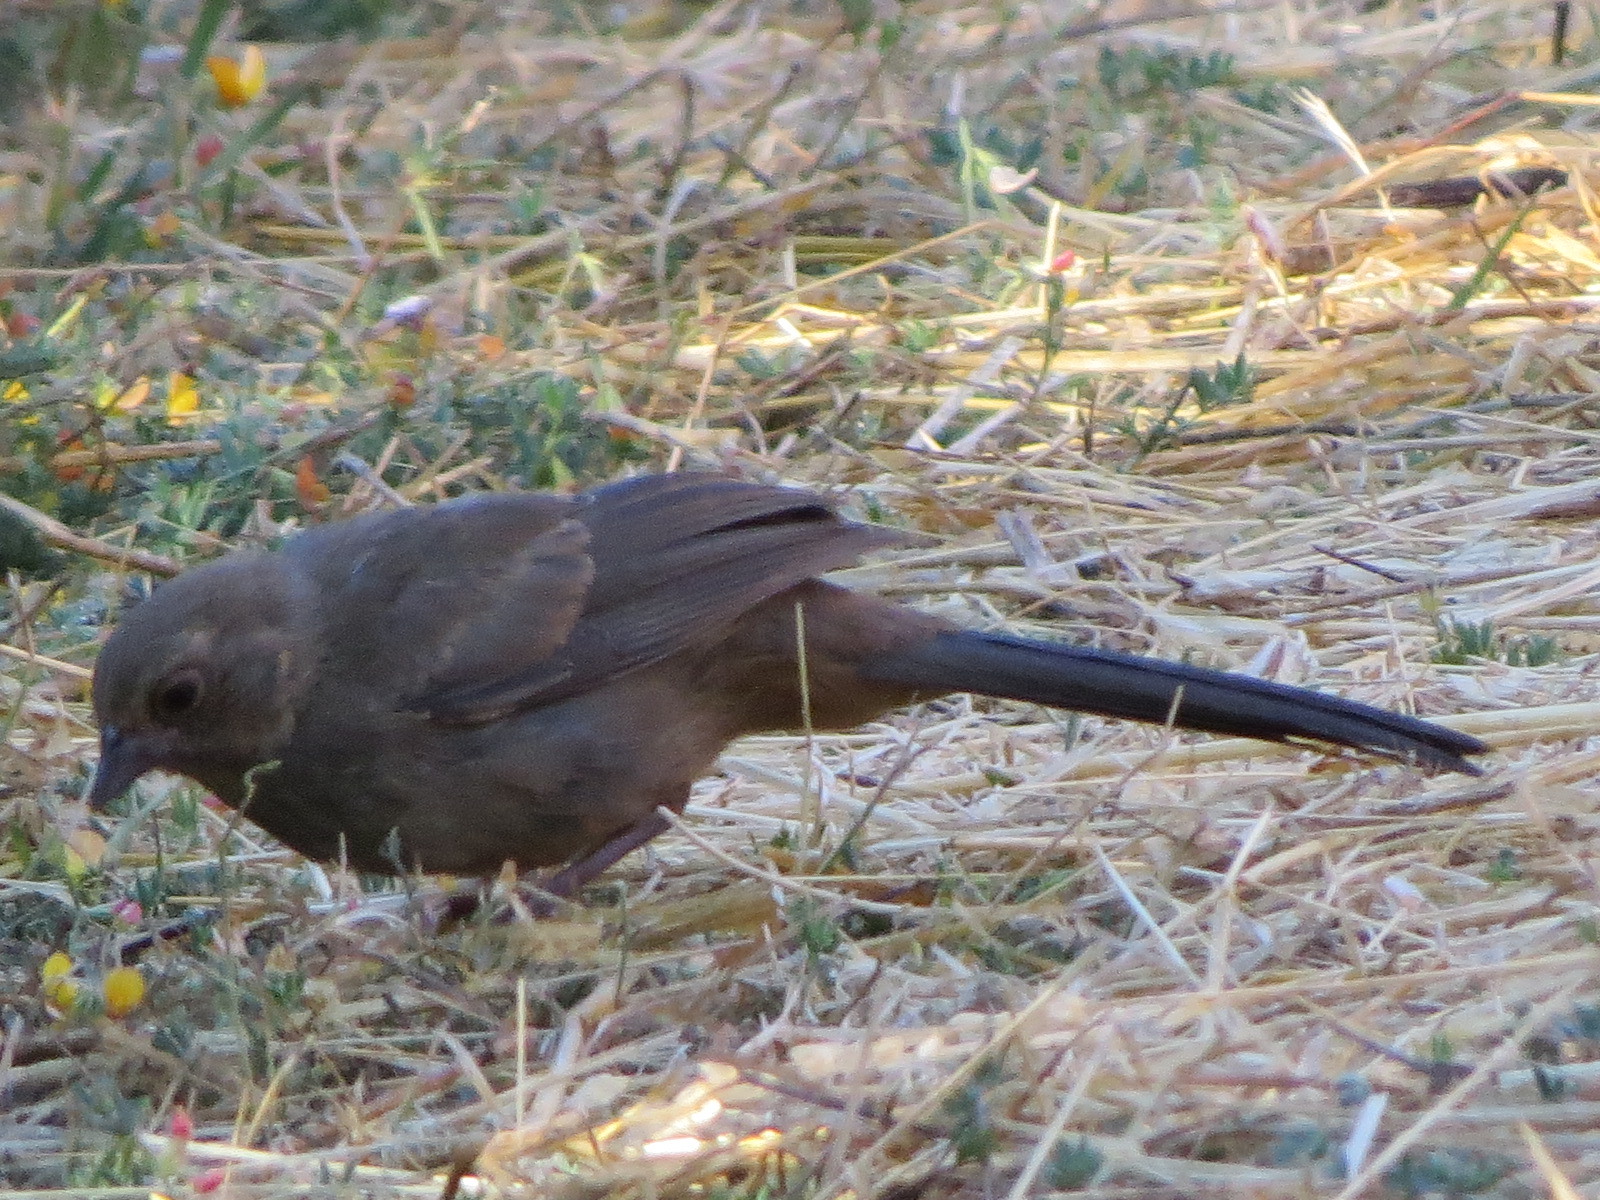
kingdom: Animalia
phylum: Chordata
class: Aves
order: Passeriformes
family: Passerellidae
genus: Melozone
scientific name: Melozone crissalis
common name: California towhee
